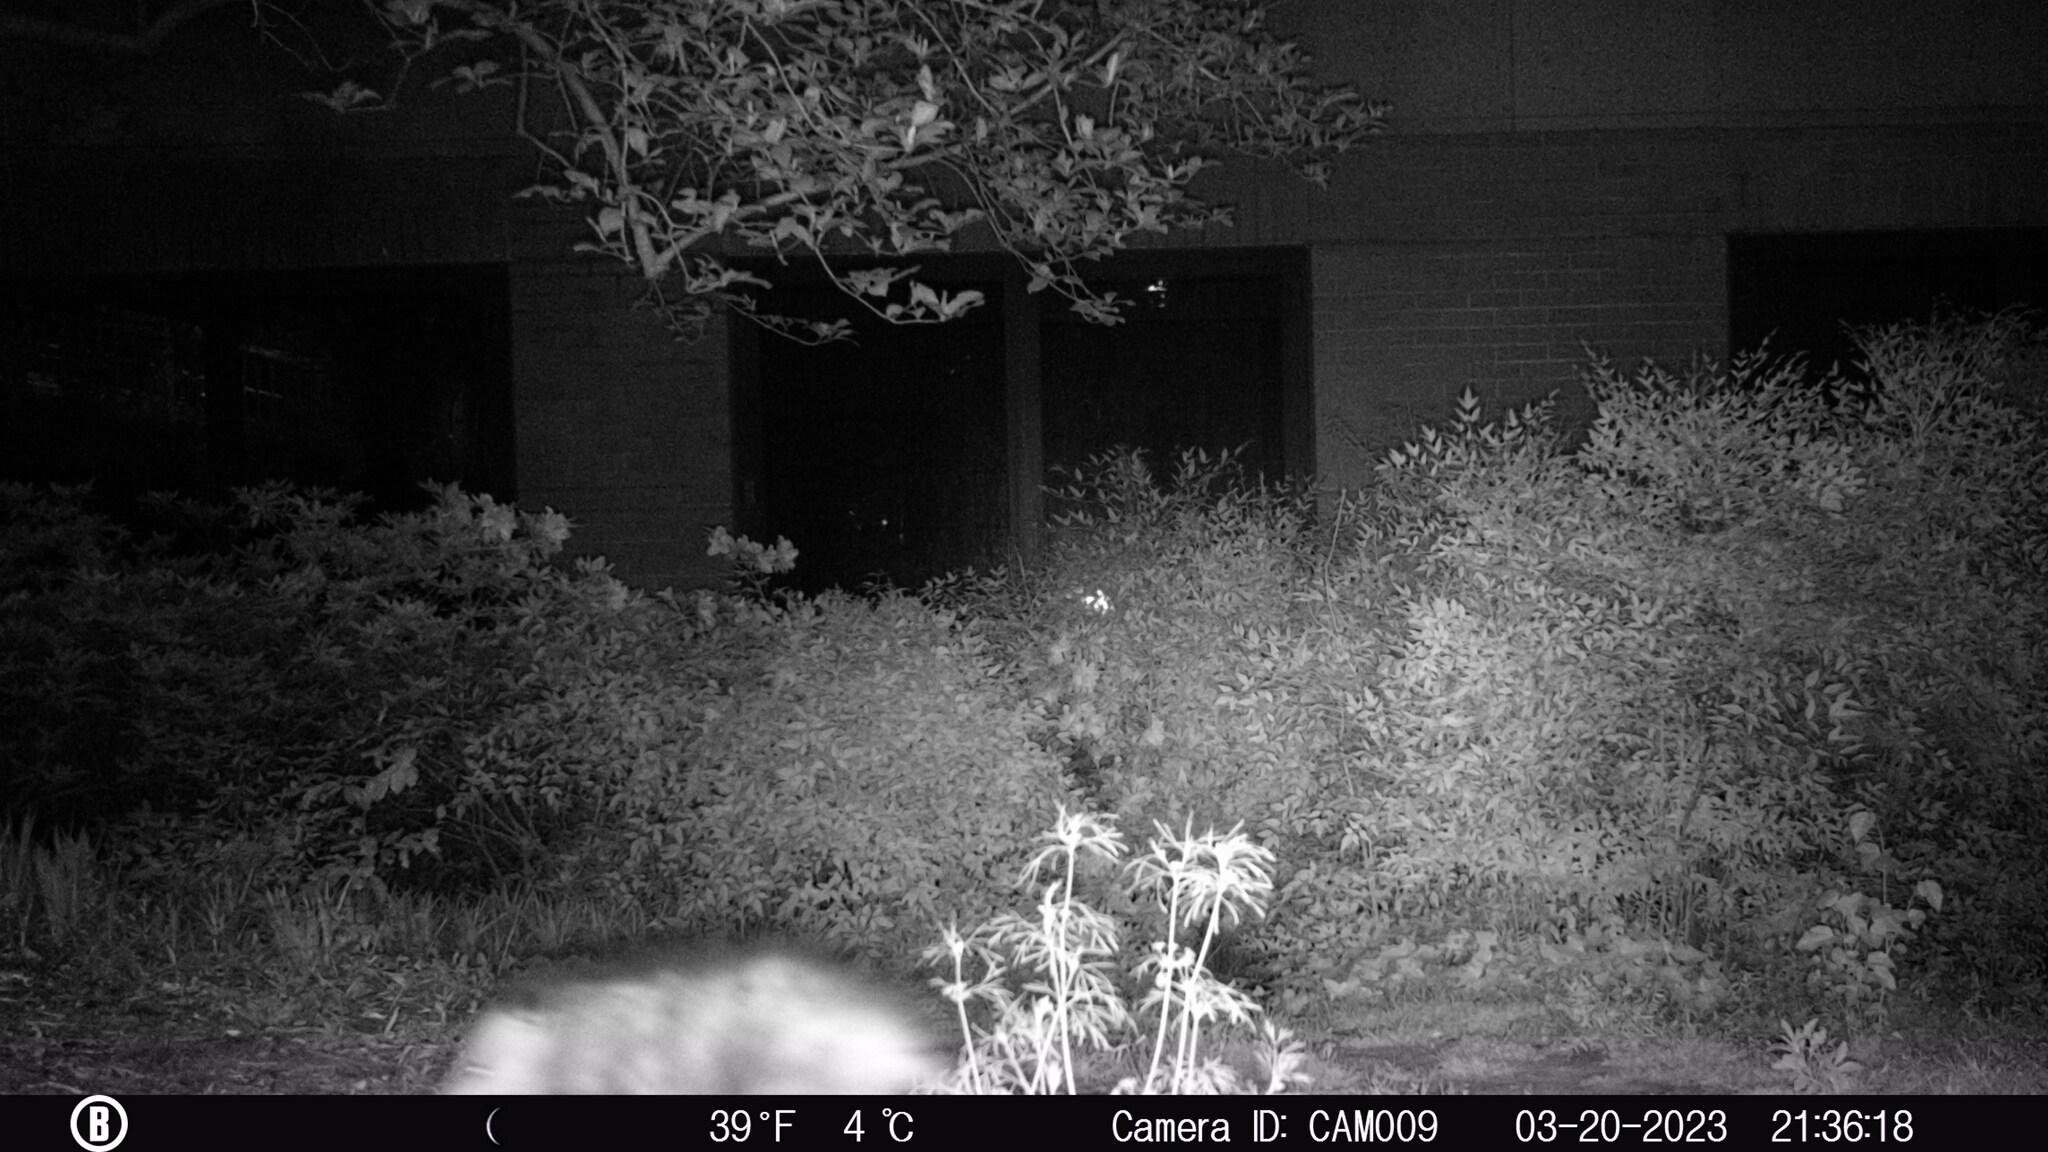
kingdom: Animalia
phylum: Chordata
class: Mammalia
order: Didelphimorphia
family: Didelphidae
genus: Didelphis
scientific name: Didelphis virginiana
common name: Virginia opossum
